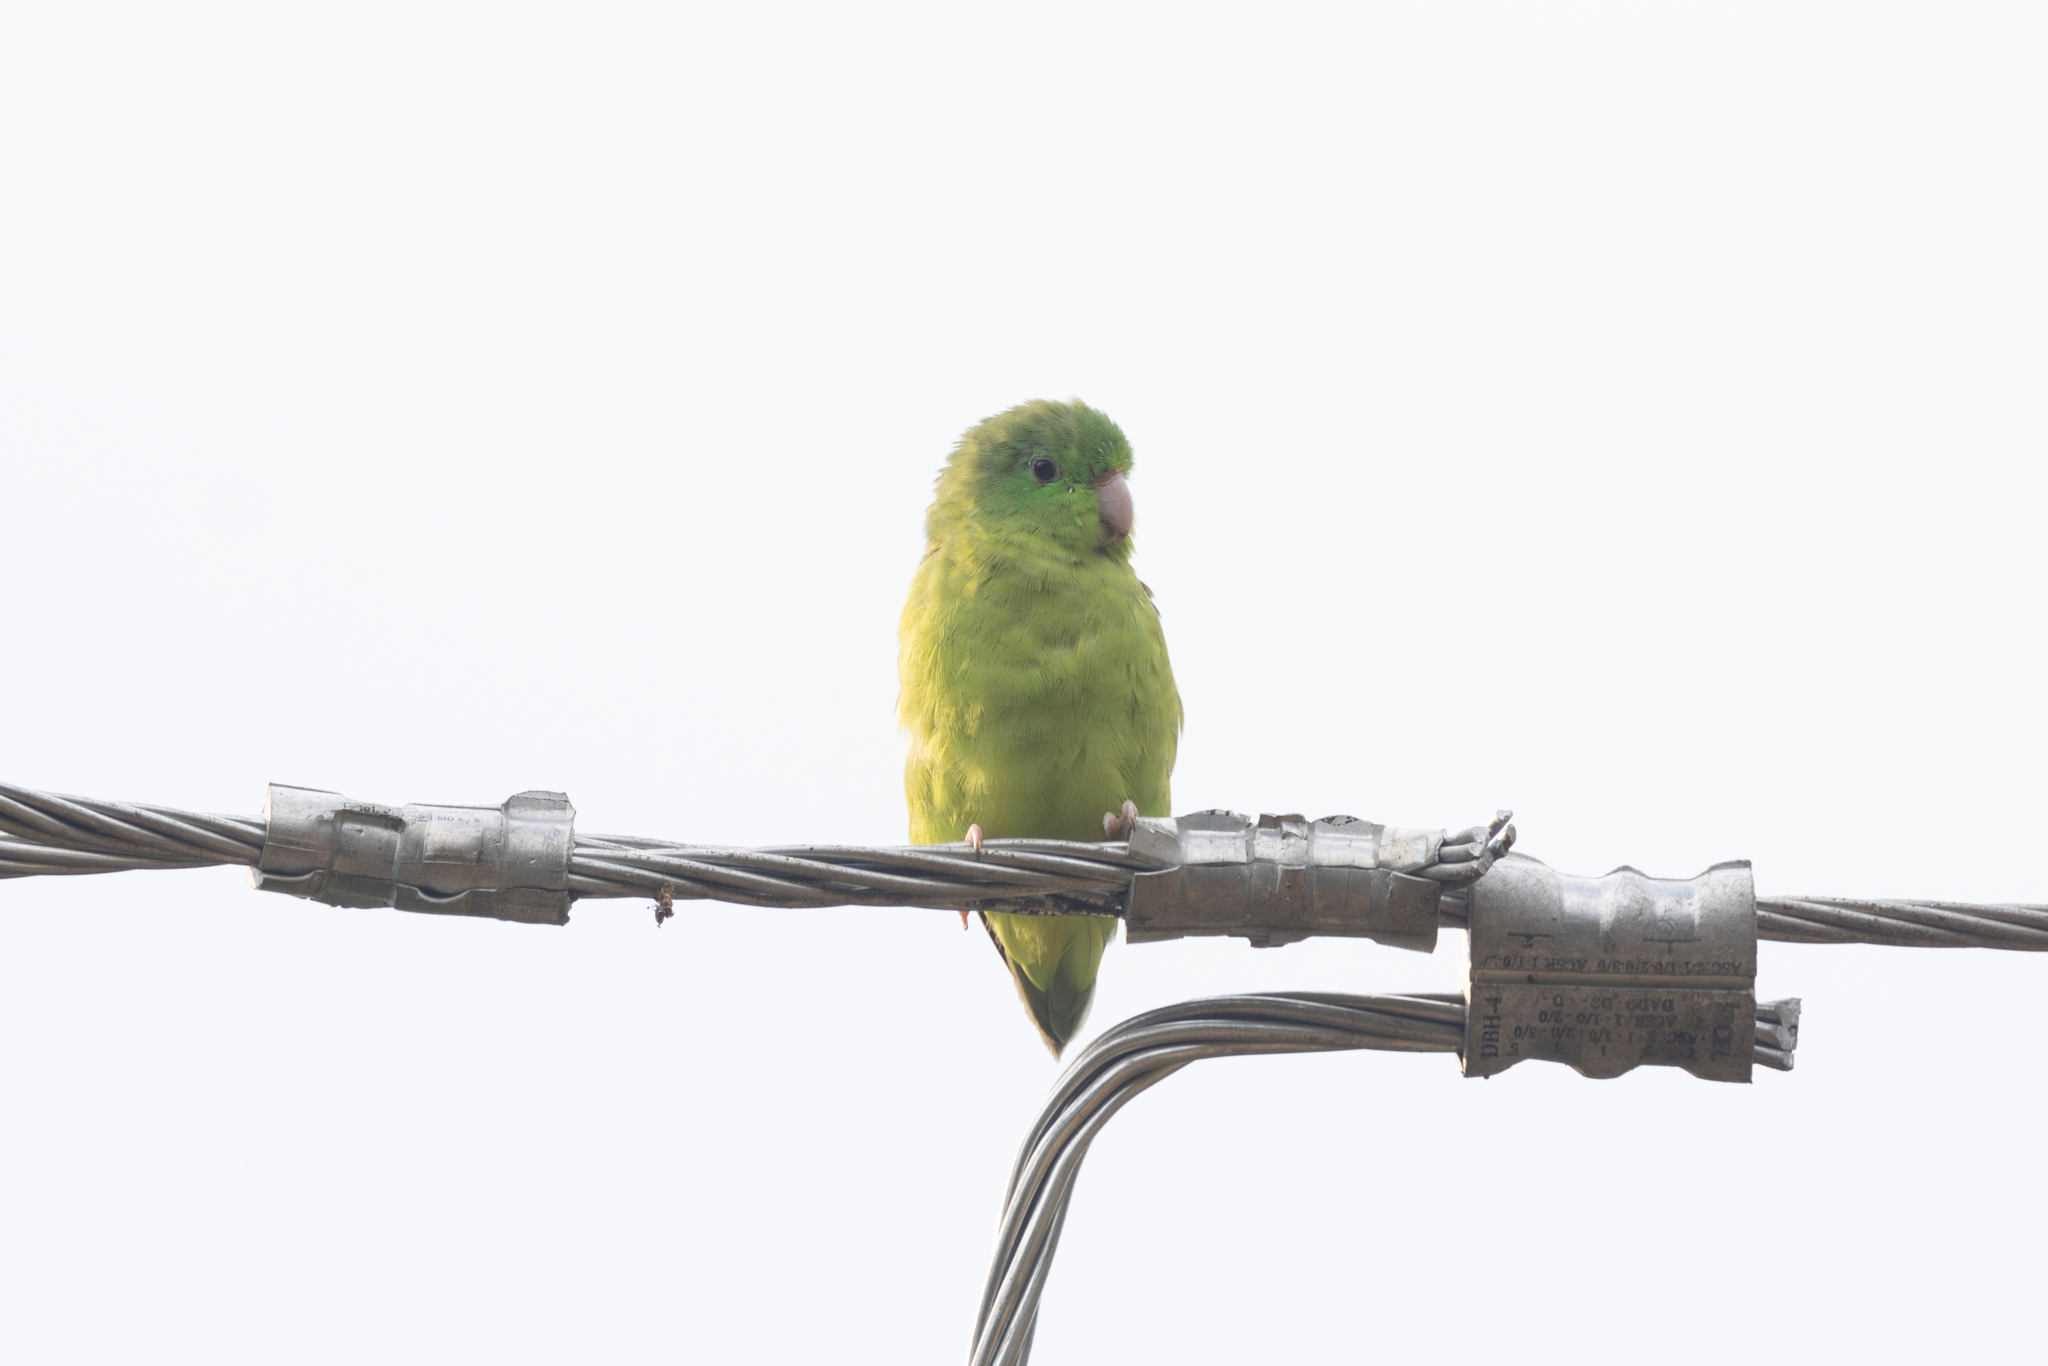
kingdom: Animalia
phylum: Chordata
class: Aves
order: Psittaciformes
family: Psittacidae
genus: Forpus
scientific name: Forpus conspicillatus
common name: Spectacled parrotlet
